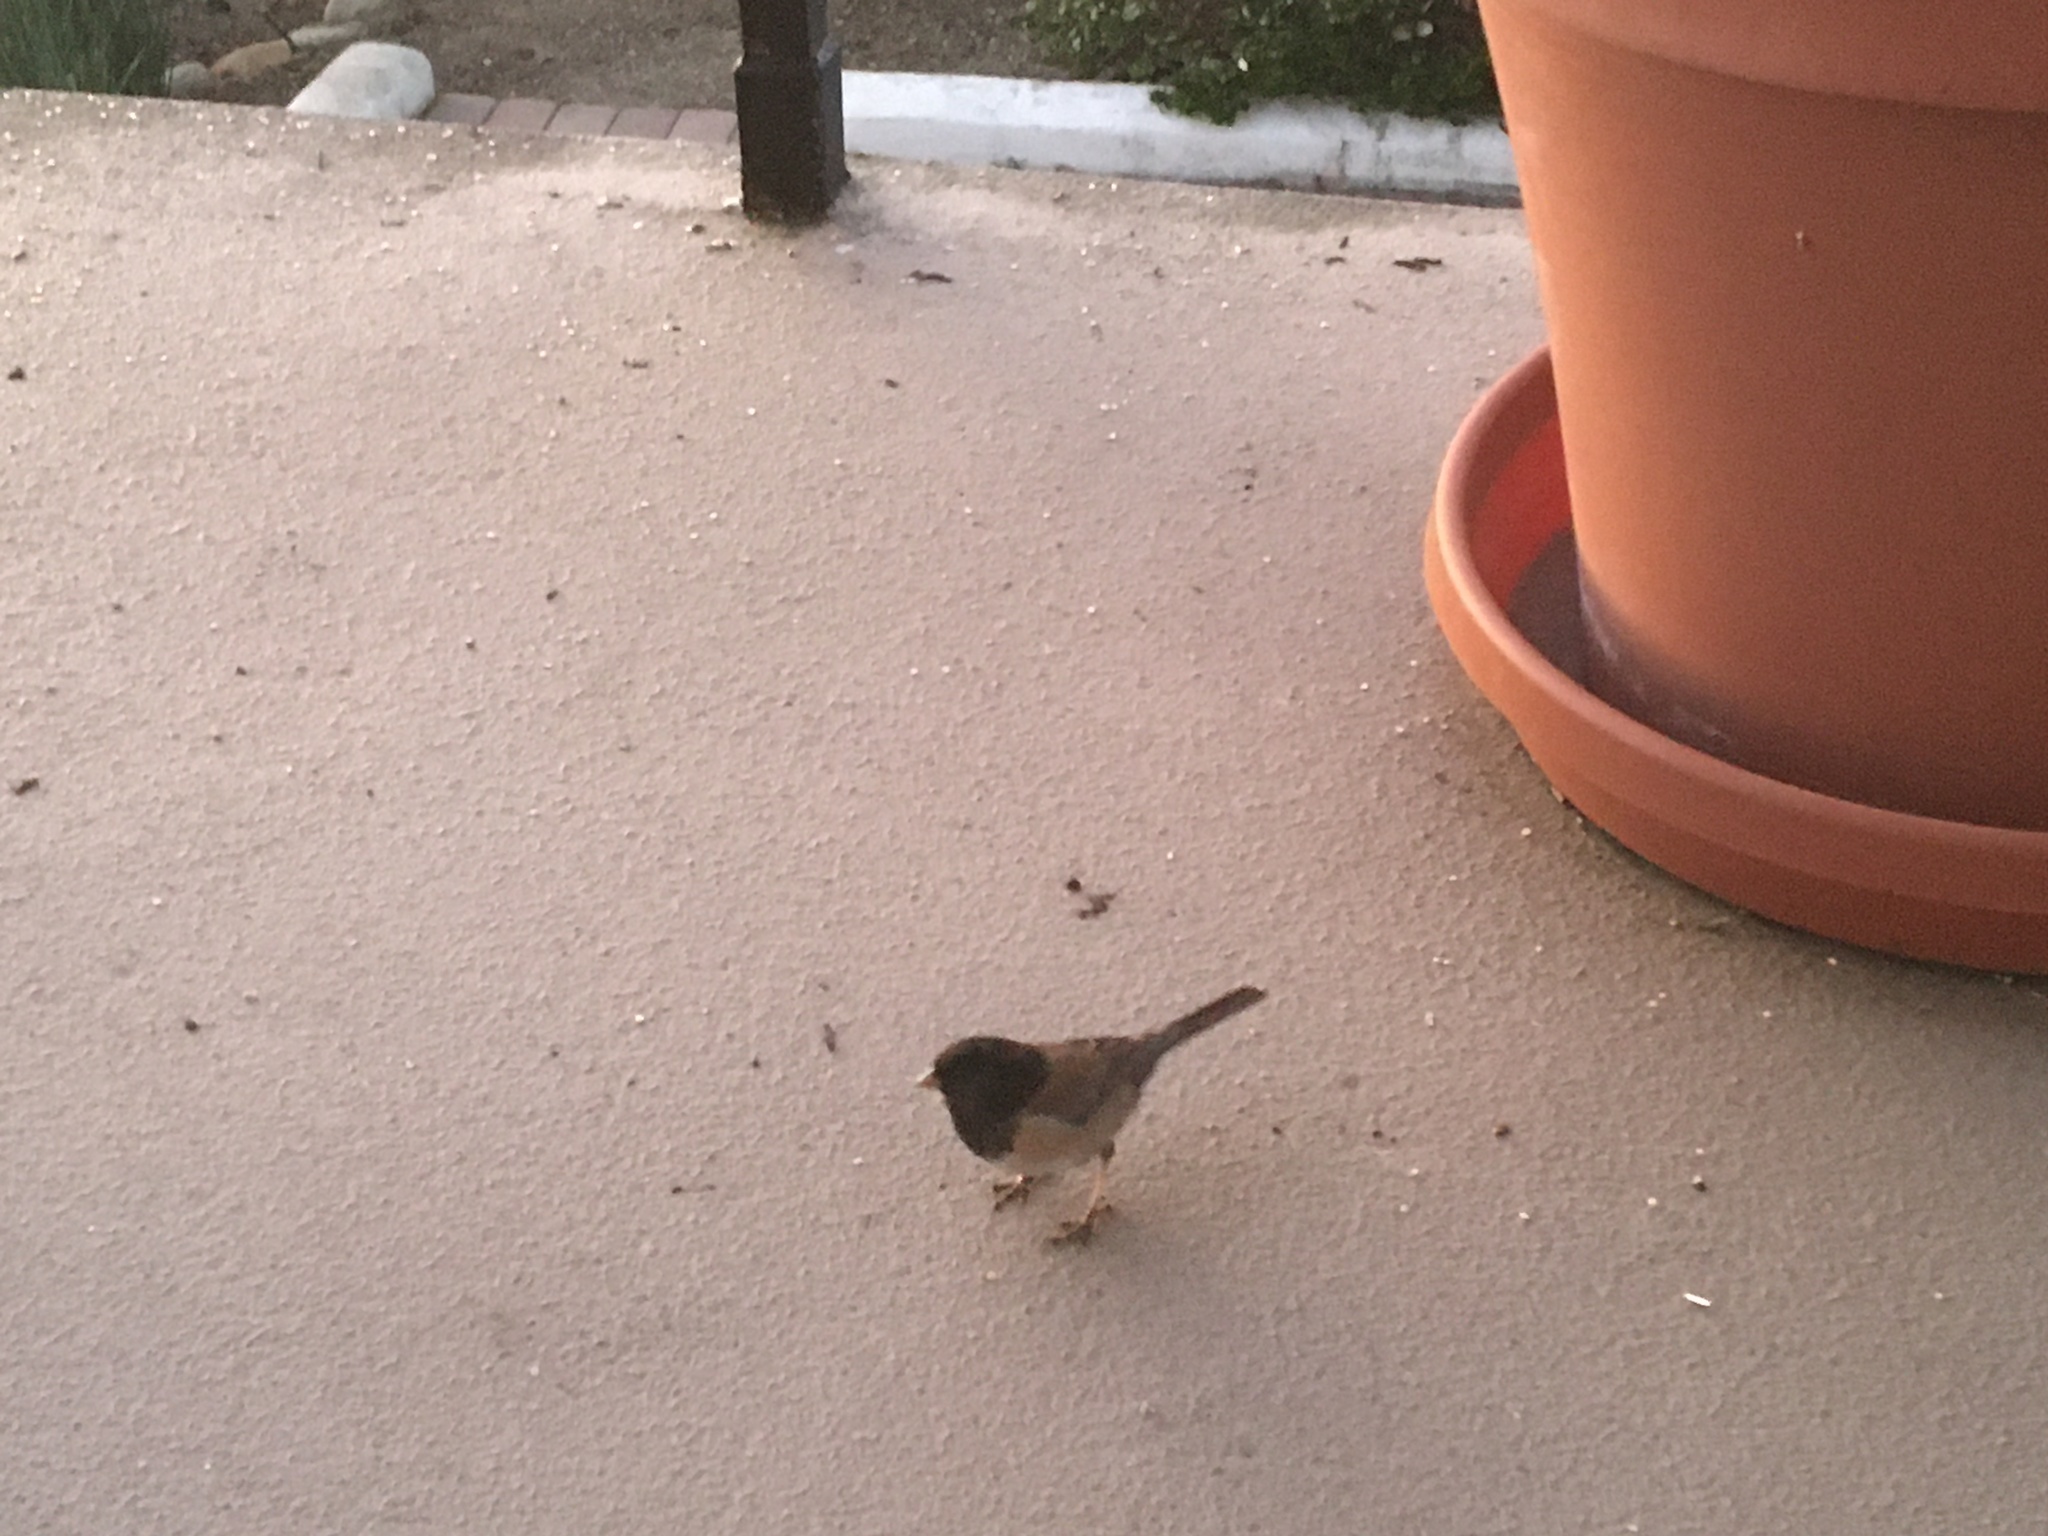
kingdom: Animalia
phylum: Chordata
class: Aves
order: Passeriformes
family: Passerellidae
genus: Junco
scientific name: Junco hyemalis
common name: Dark-eyed junco
